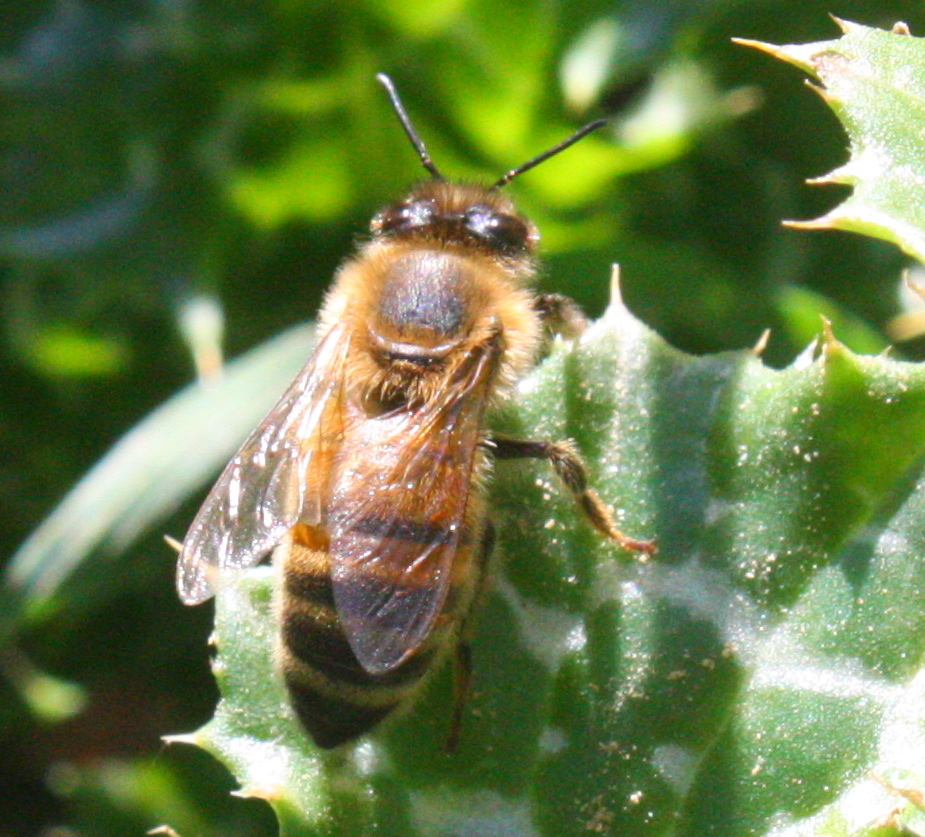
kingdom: Animalia
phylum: Arthropoda
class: Insecta
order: Hymenoptera
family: Apidae
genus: Apis
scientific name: Apis mellifera
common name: Honey bee
